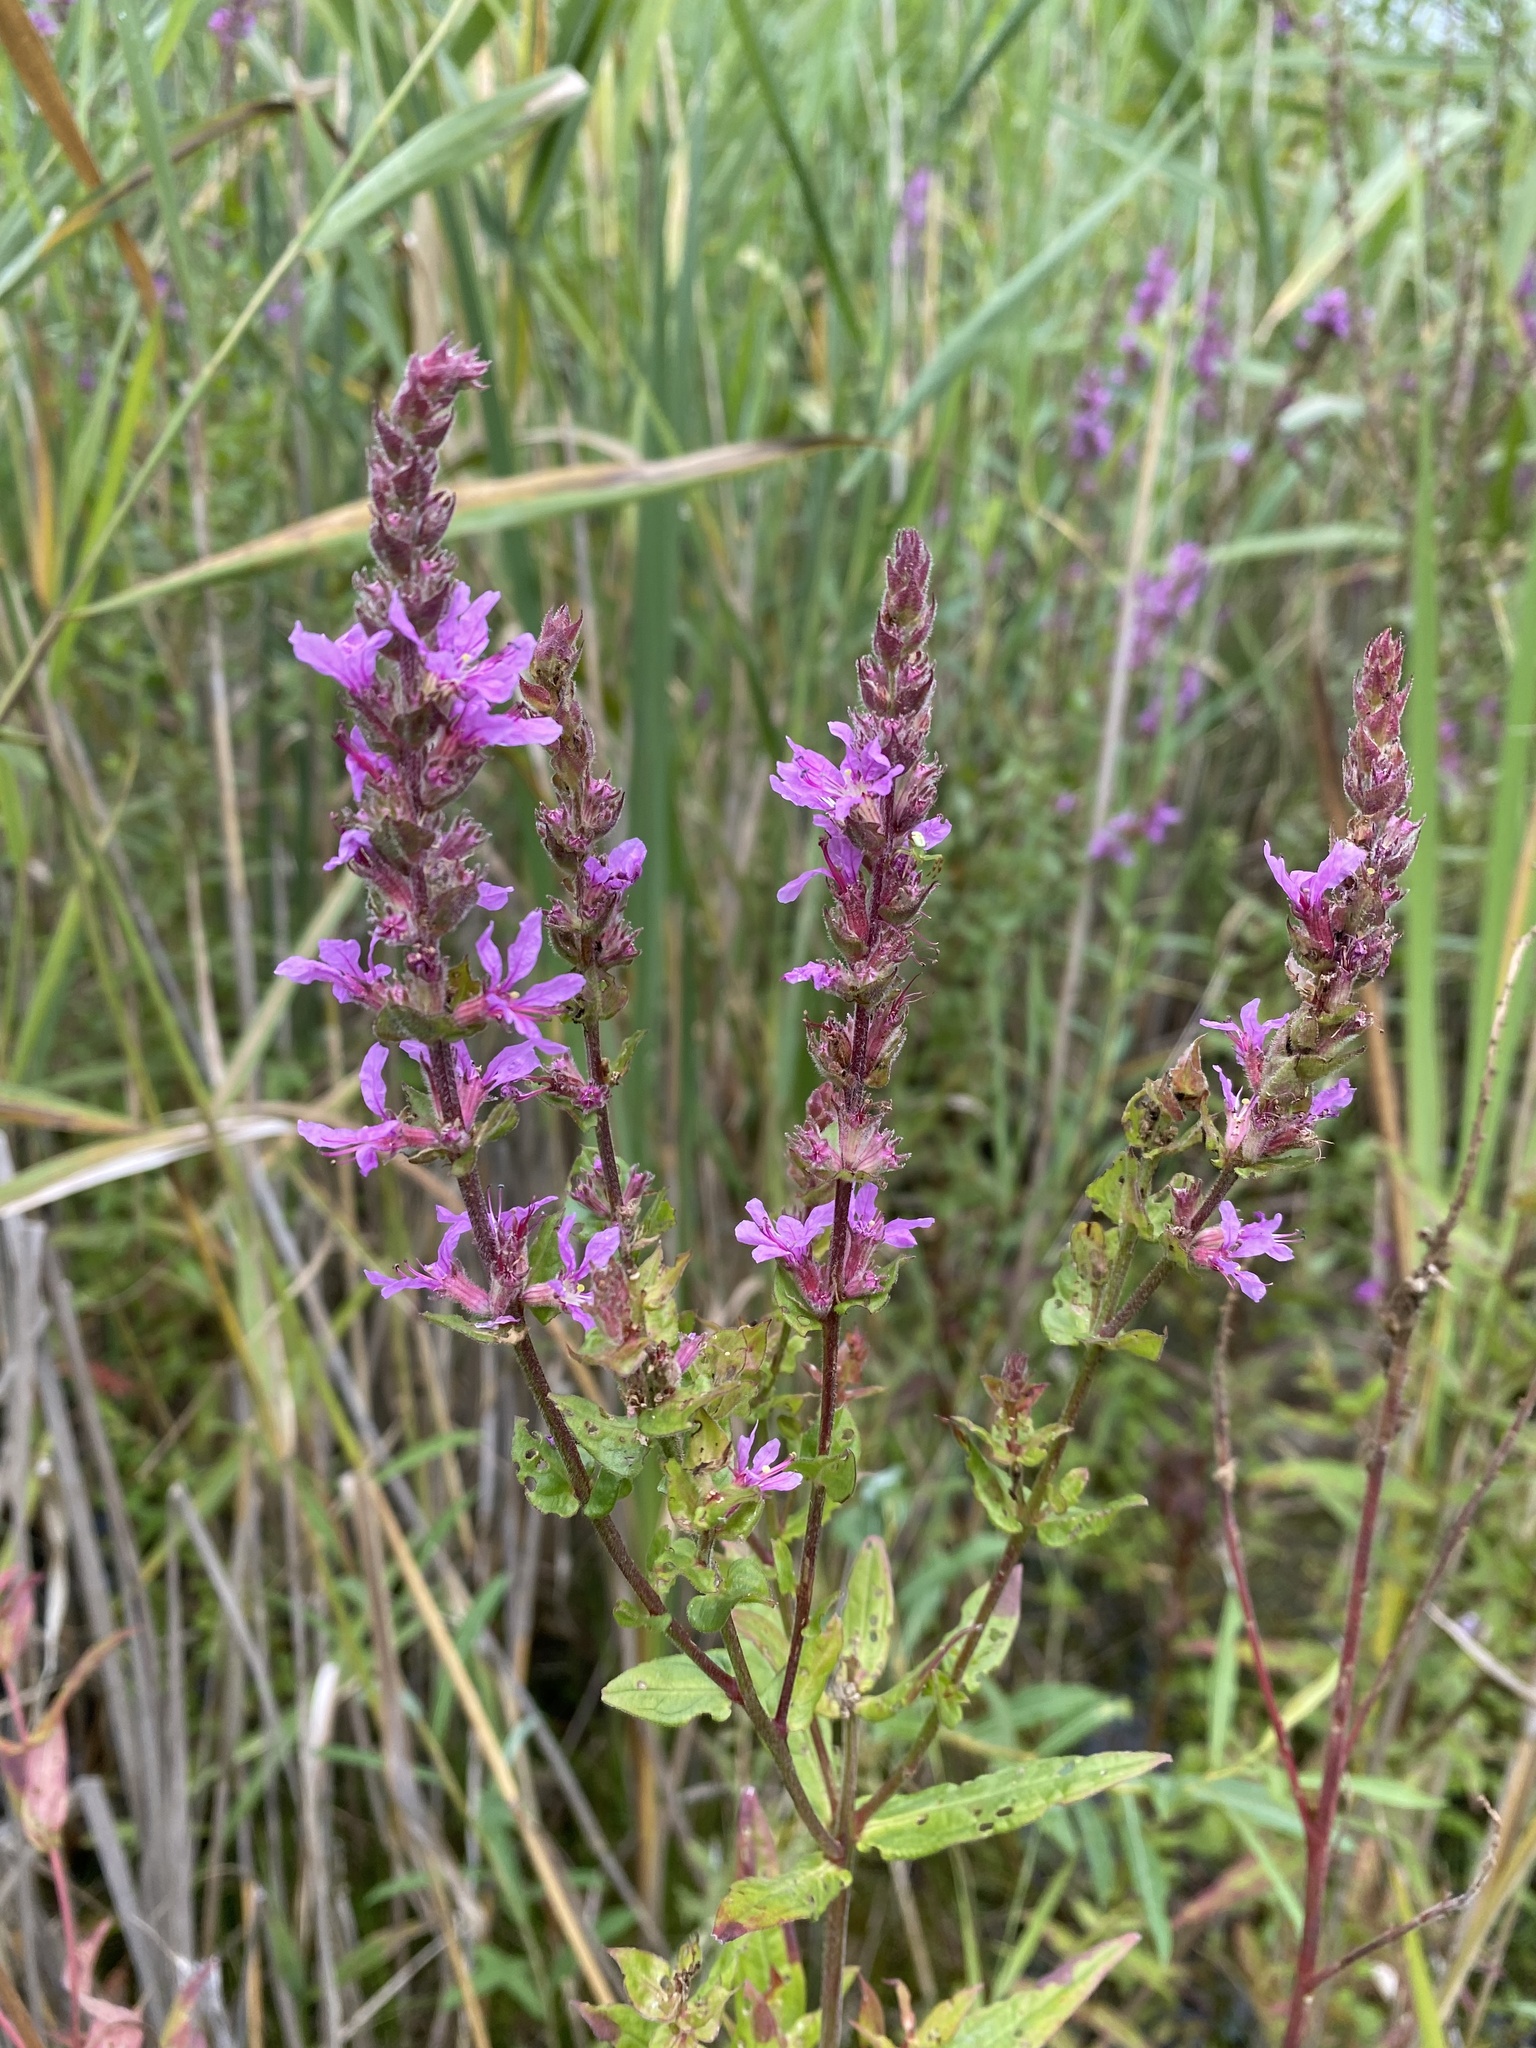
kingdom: Plantae
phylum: Tracheophyta
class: Magnoliopsida
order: Myrtales
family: Lythraceae
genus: Lythrum
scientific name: Lythrum salicaria
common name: Purple loosestrife
